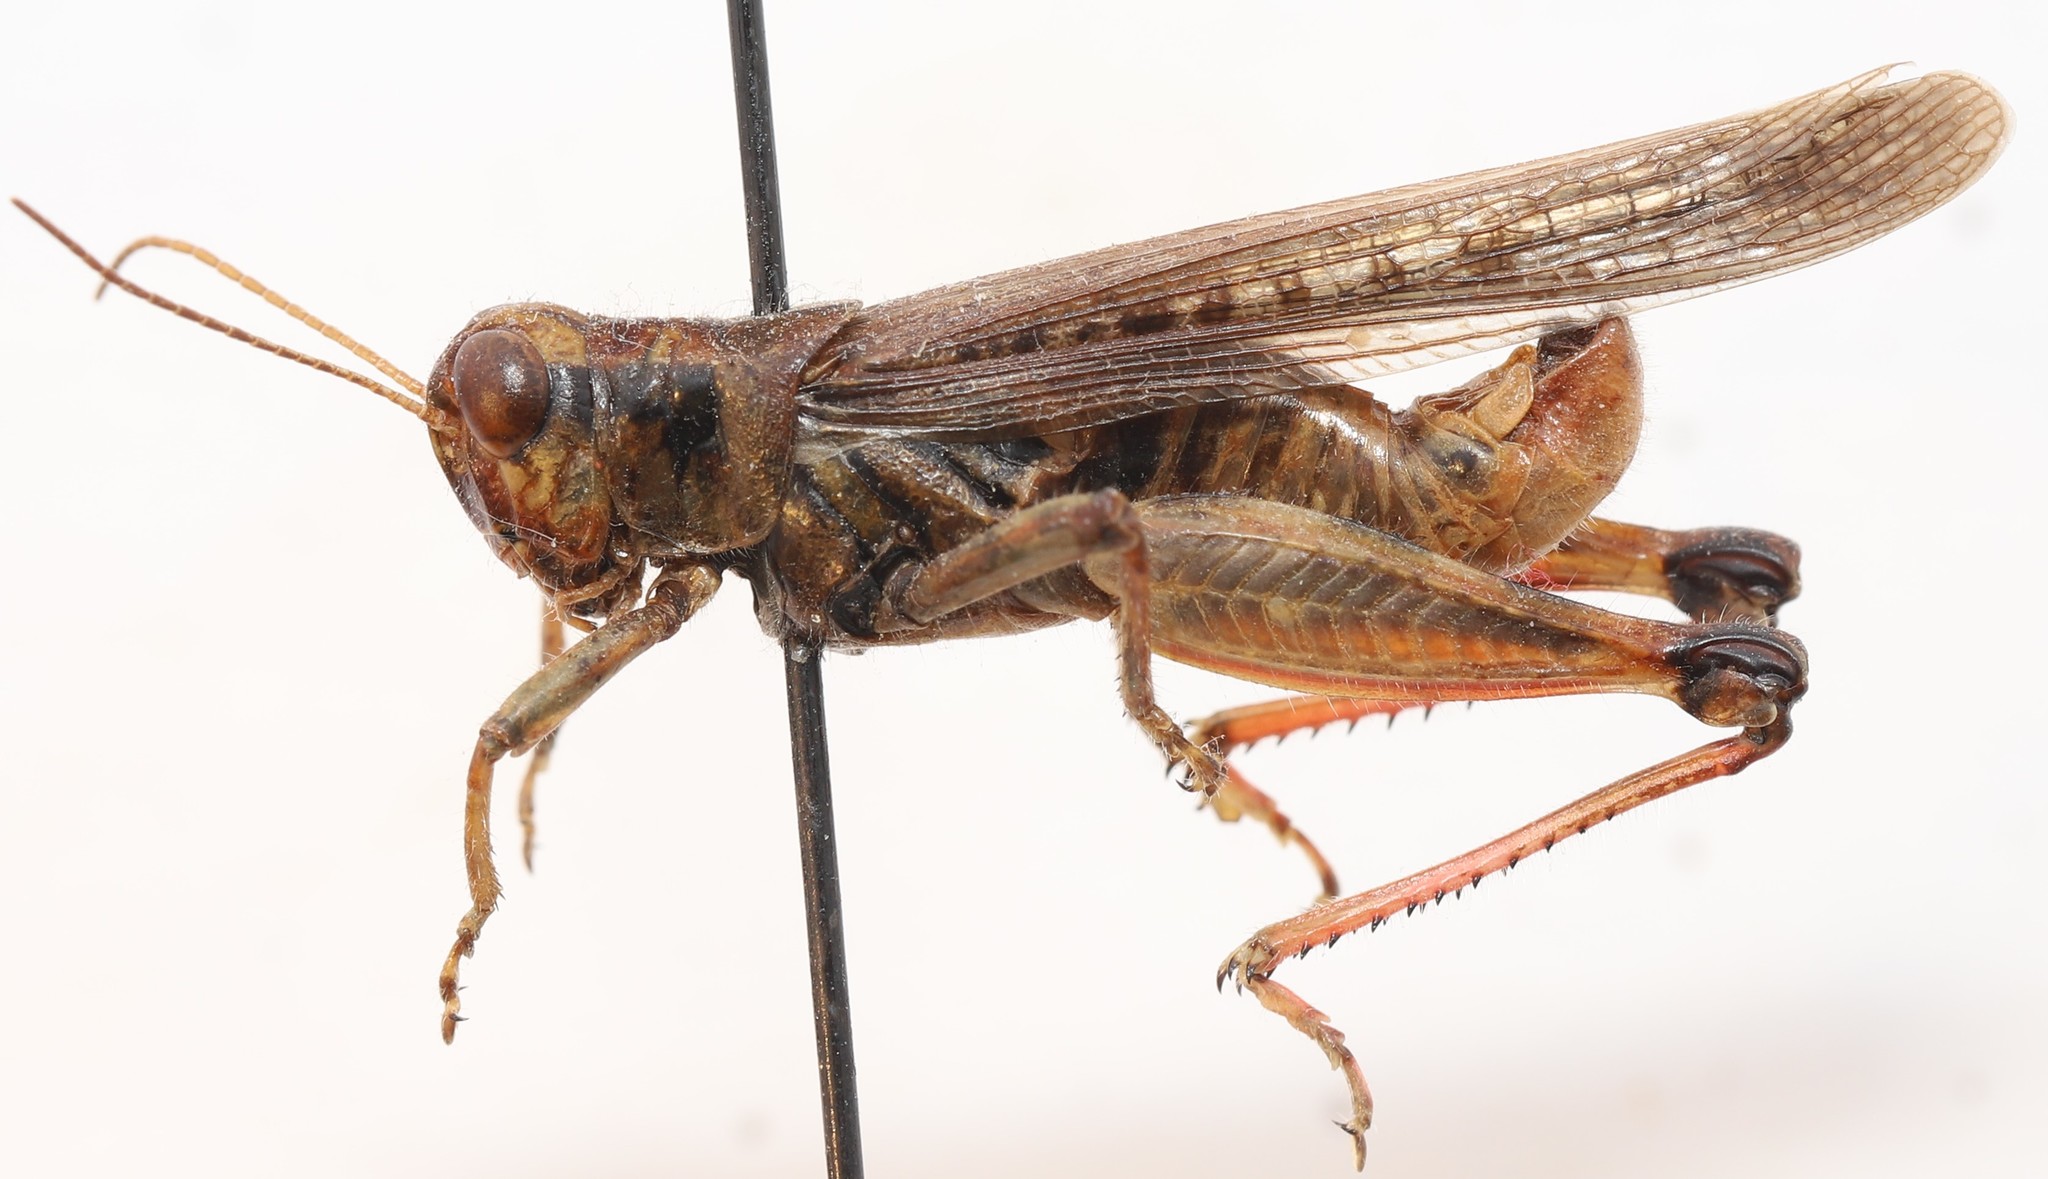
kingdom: Animalia
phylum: Arthropoda
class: Insecta
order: Orthoptera
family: Acrididae
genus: Melanoplus
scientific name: Melanoplus sanguinipes
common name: Migratory grasshopper
